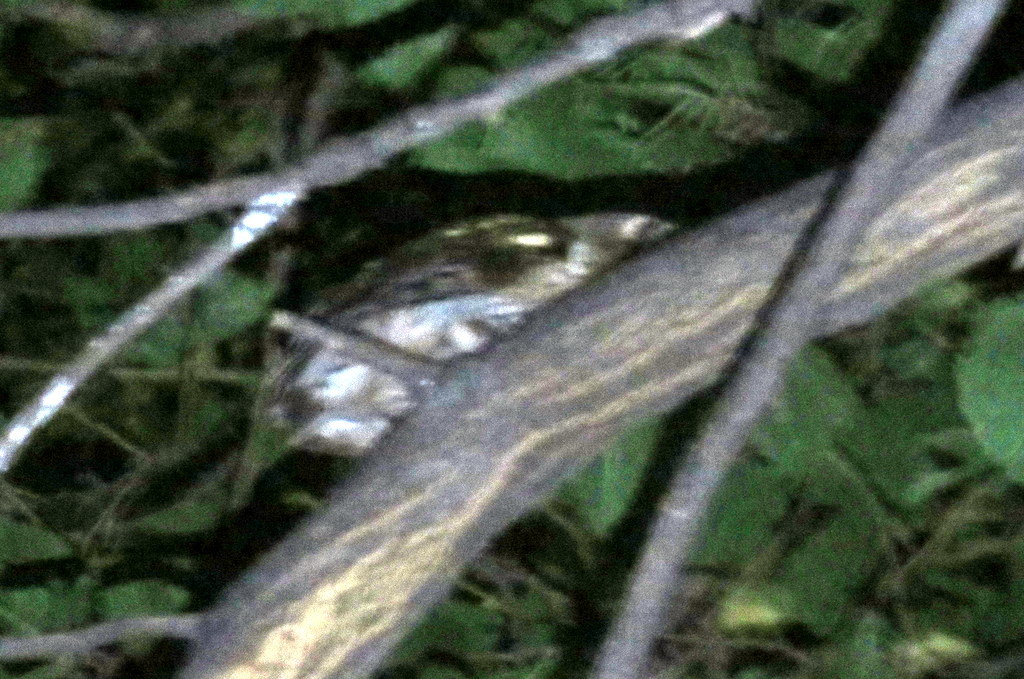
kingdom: Animalia
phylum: Chordata
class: Aves
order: Strigiformes
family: Strigidae
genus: Megascops
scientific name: Megascops choliba
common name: Tropical screech-owl
